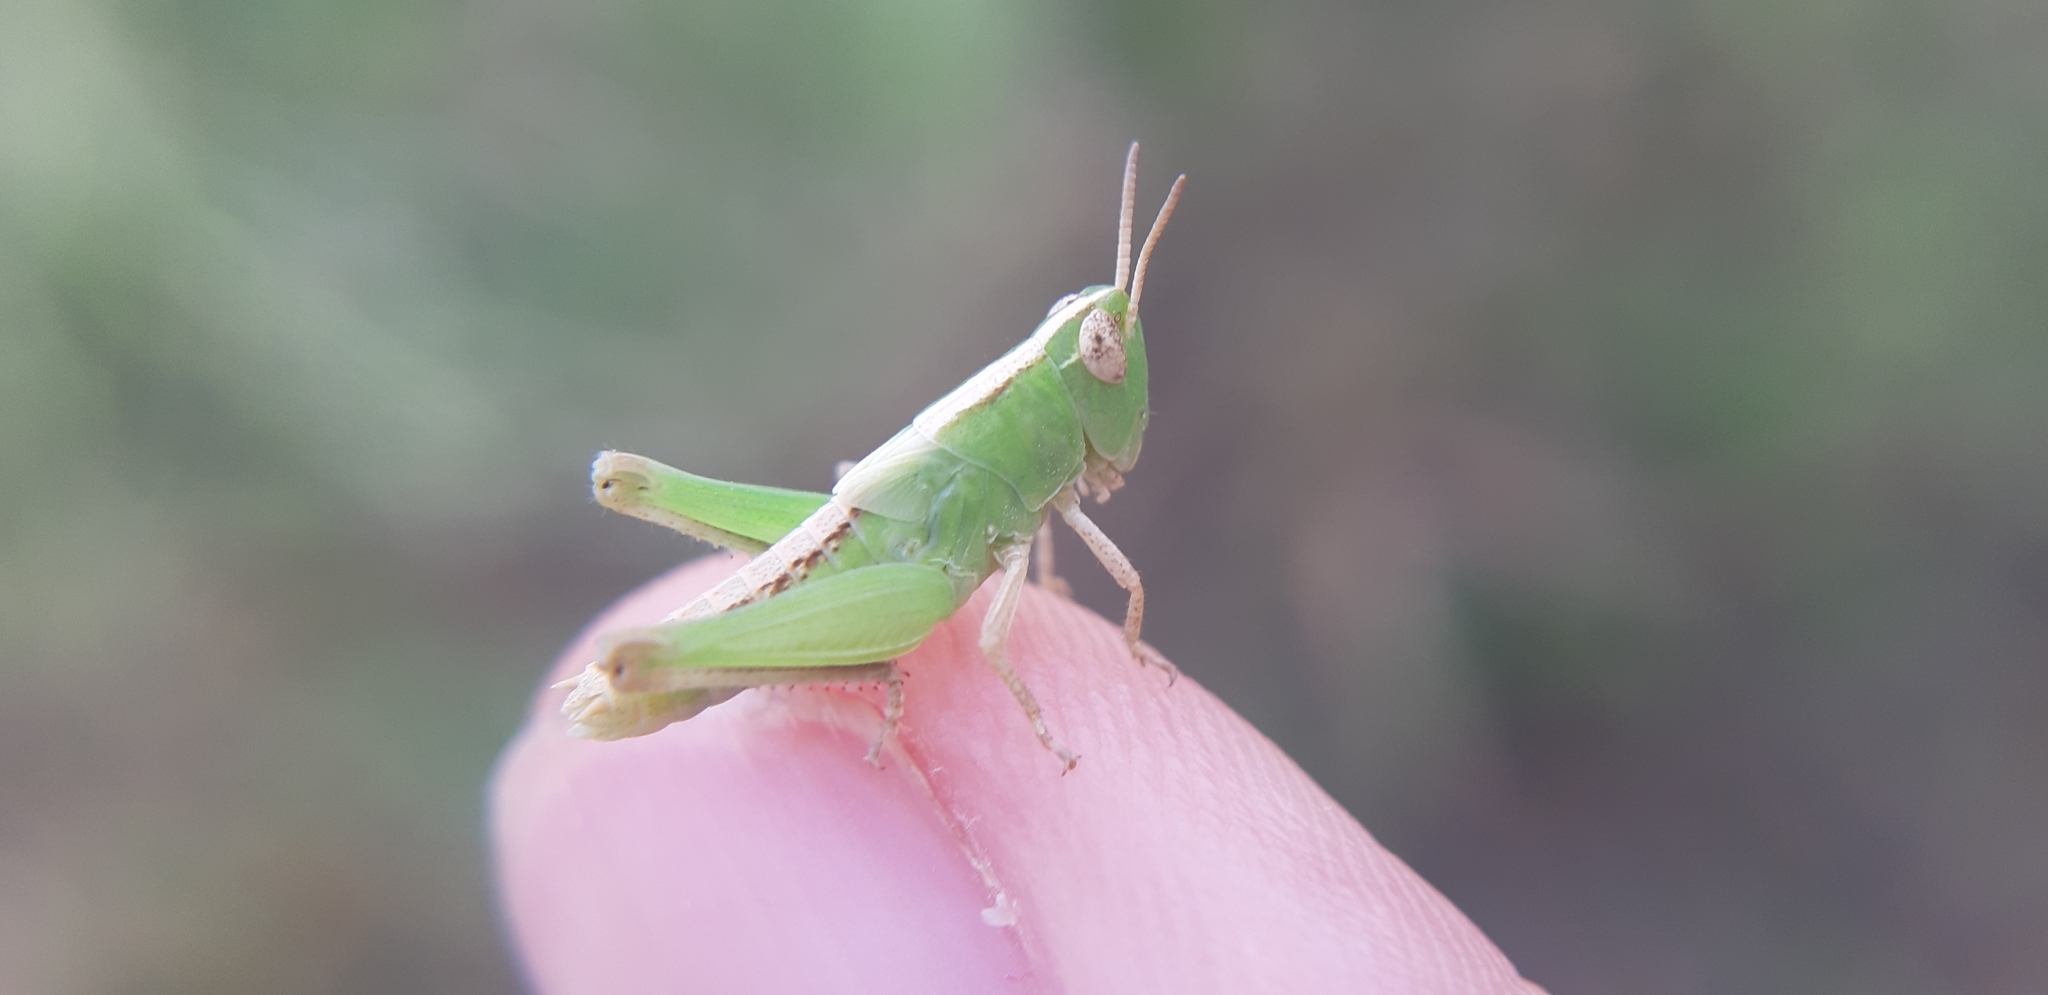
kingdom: Animalia
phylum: Arthropoda
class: Insecta
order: Orthoptera
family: Acrididae
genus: Aiolopus
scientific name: Aiolopus thalassinus
